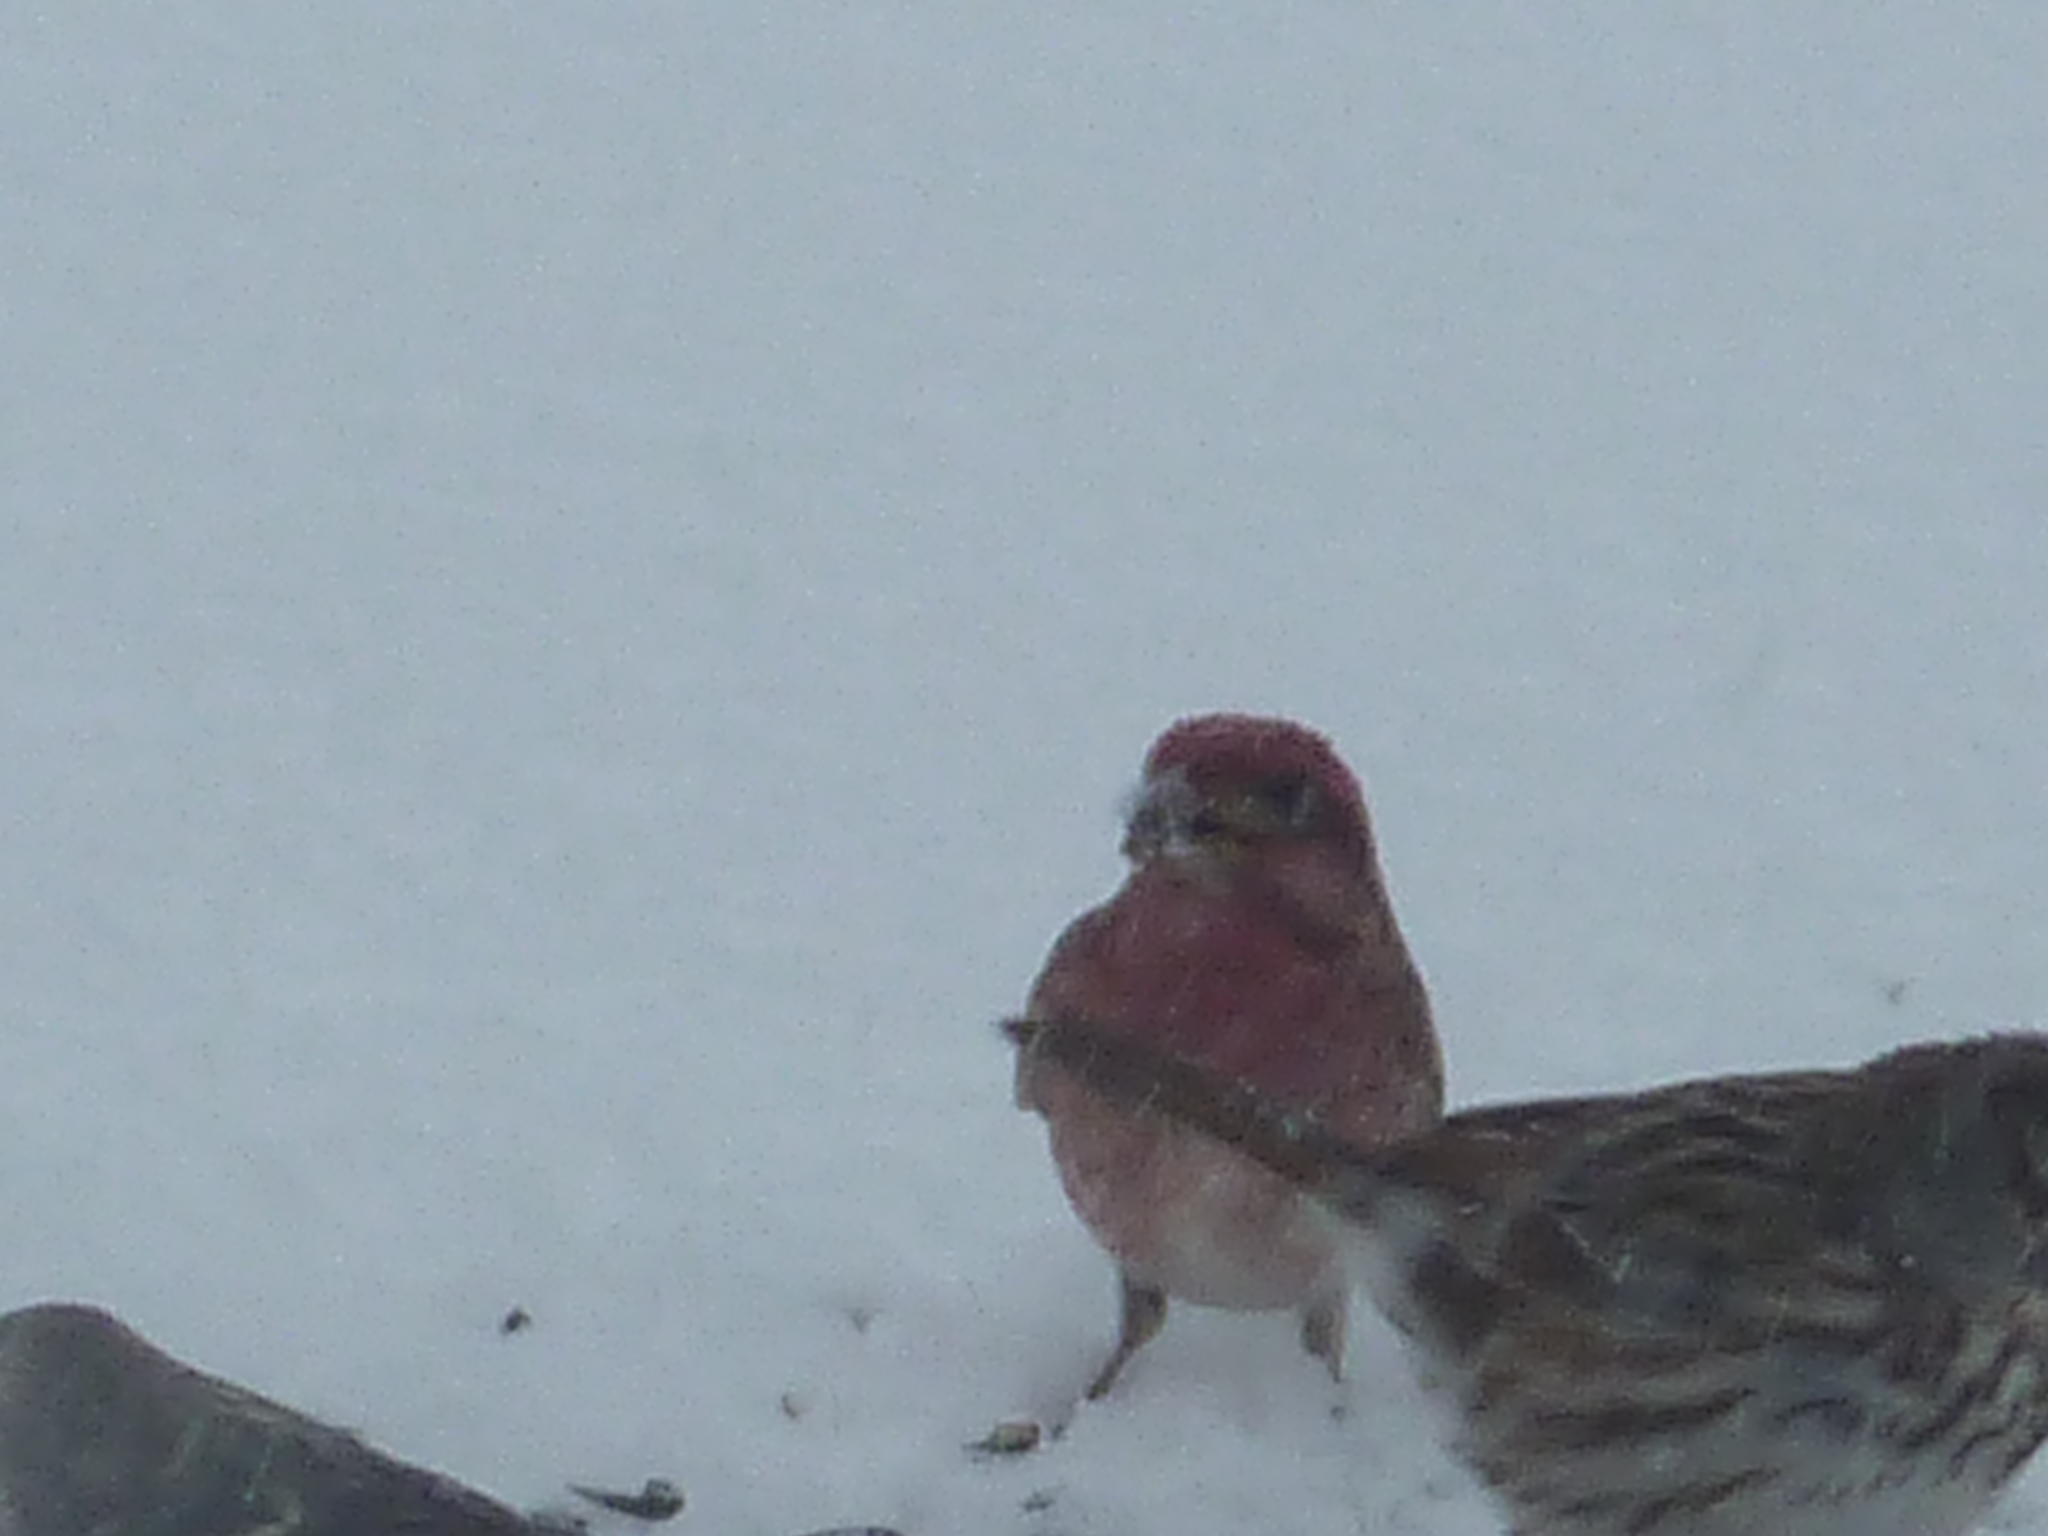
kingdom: Animalia
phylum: Chordata
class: Aves
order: Passeriformes
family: Fringillidae
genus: Haemorhous
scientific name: Haemorhous purpureus
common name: Purple finch
